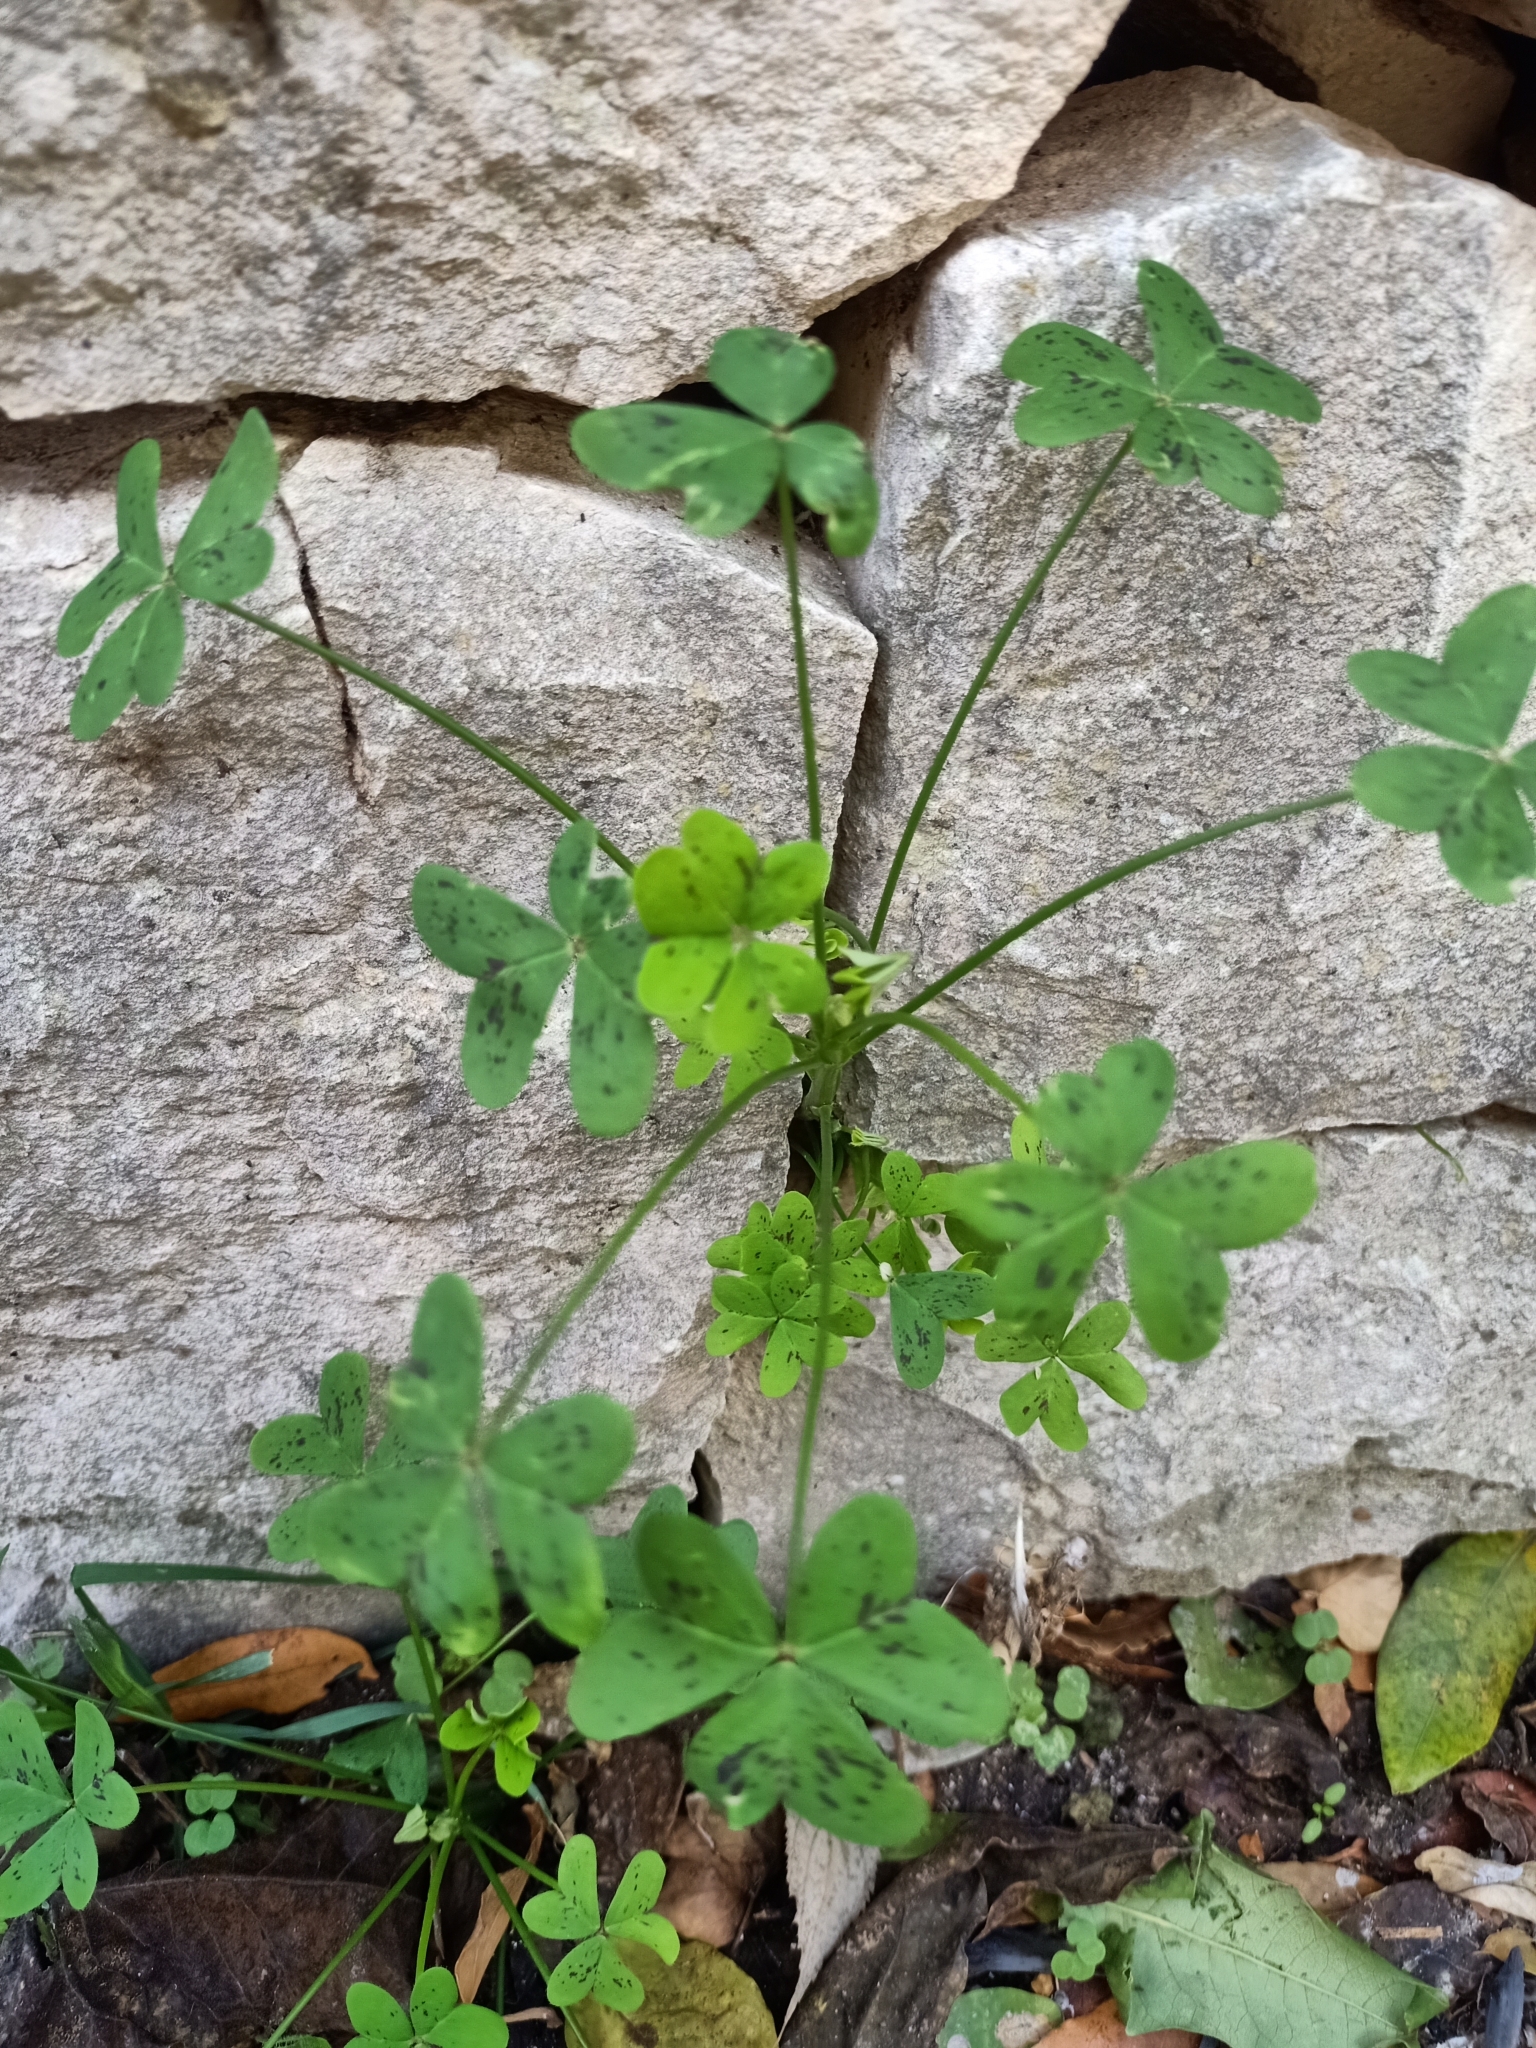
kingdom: Plantae
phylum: Tracheophyta
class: Magnoliopsida
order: Oxalidales
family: Oxalidaceae
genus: Oxalis
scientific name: Oxalis pes-caprae
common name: Bermuda-buttercup
